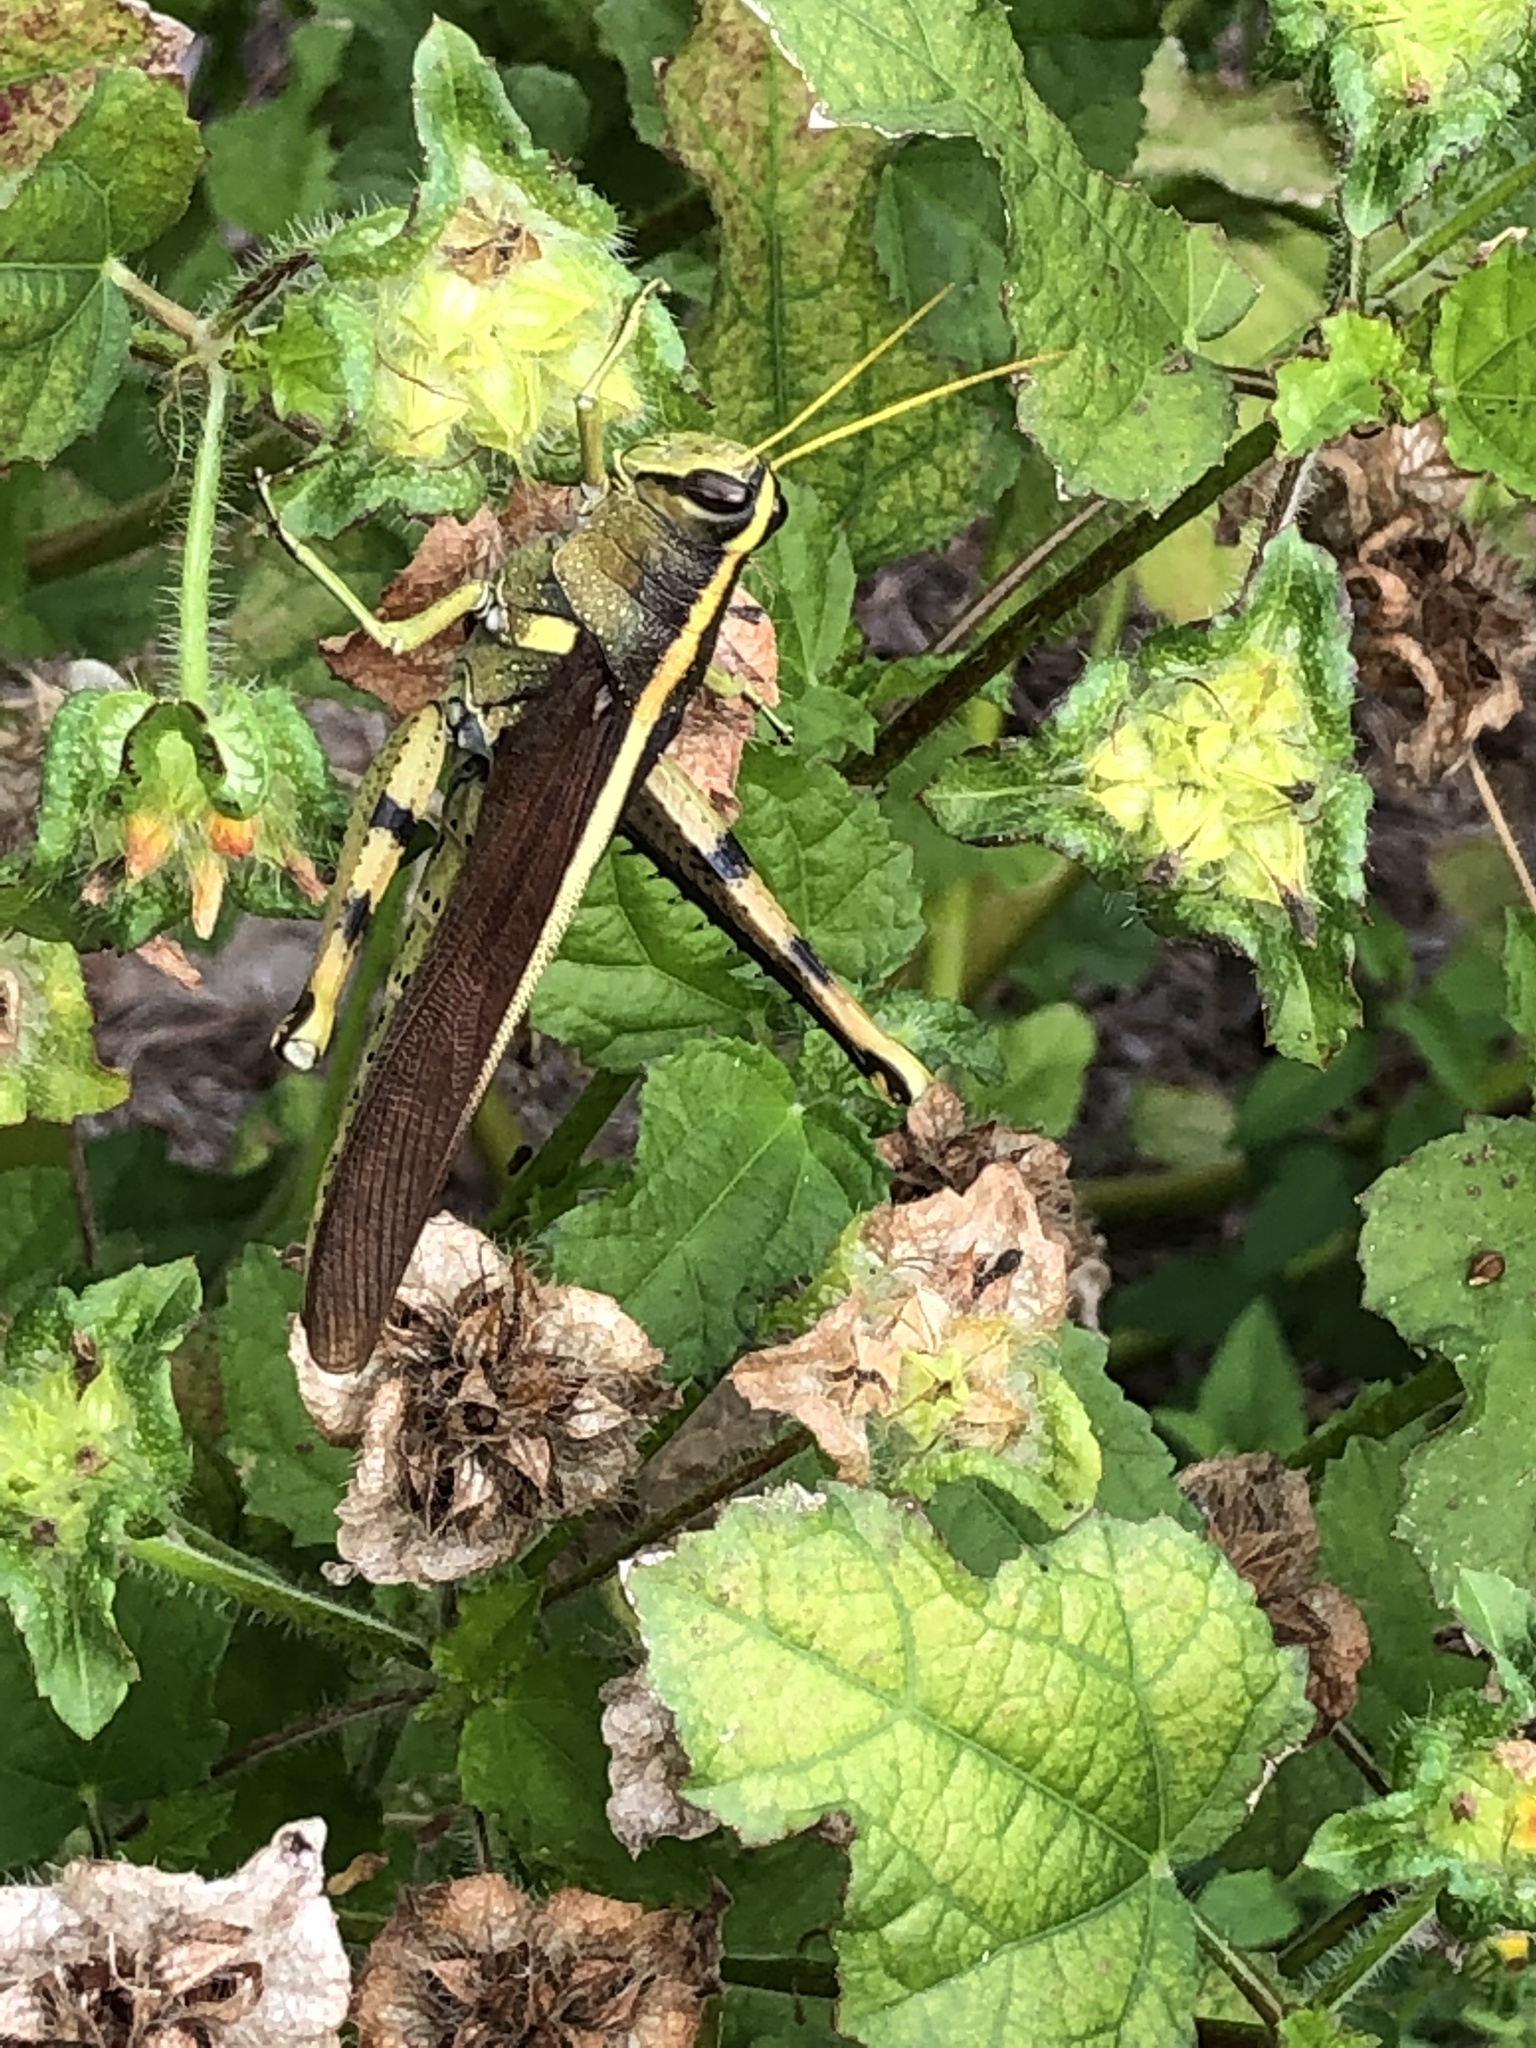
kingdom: Animalia
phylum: Arthropoda
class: Insecta
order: Orthoptera
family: Acrididae
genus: Schistocerca
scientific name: Schistocerca obscura
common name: Obscure bird grasshopper
